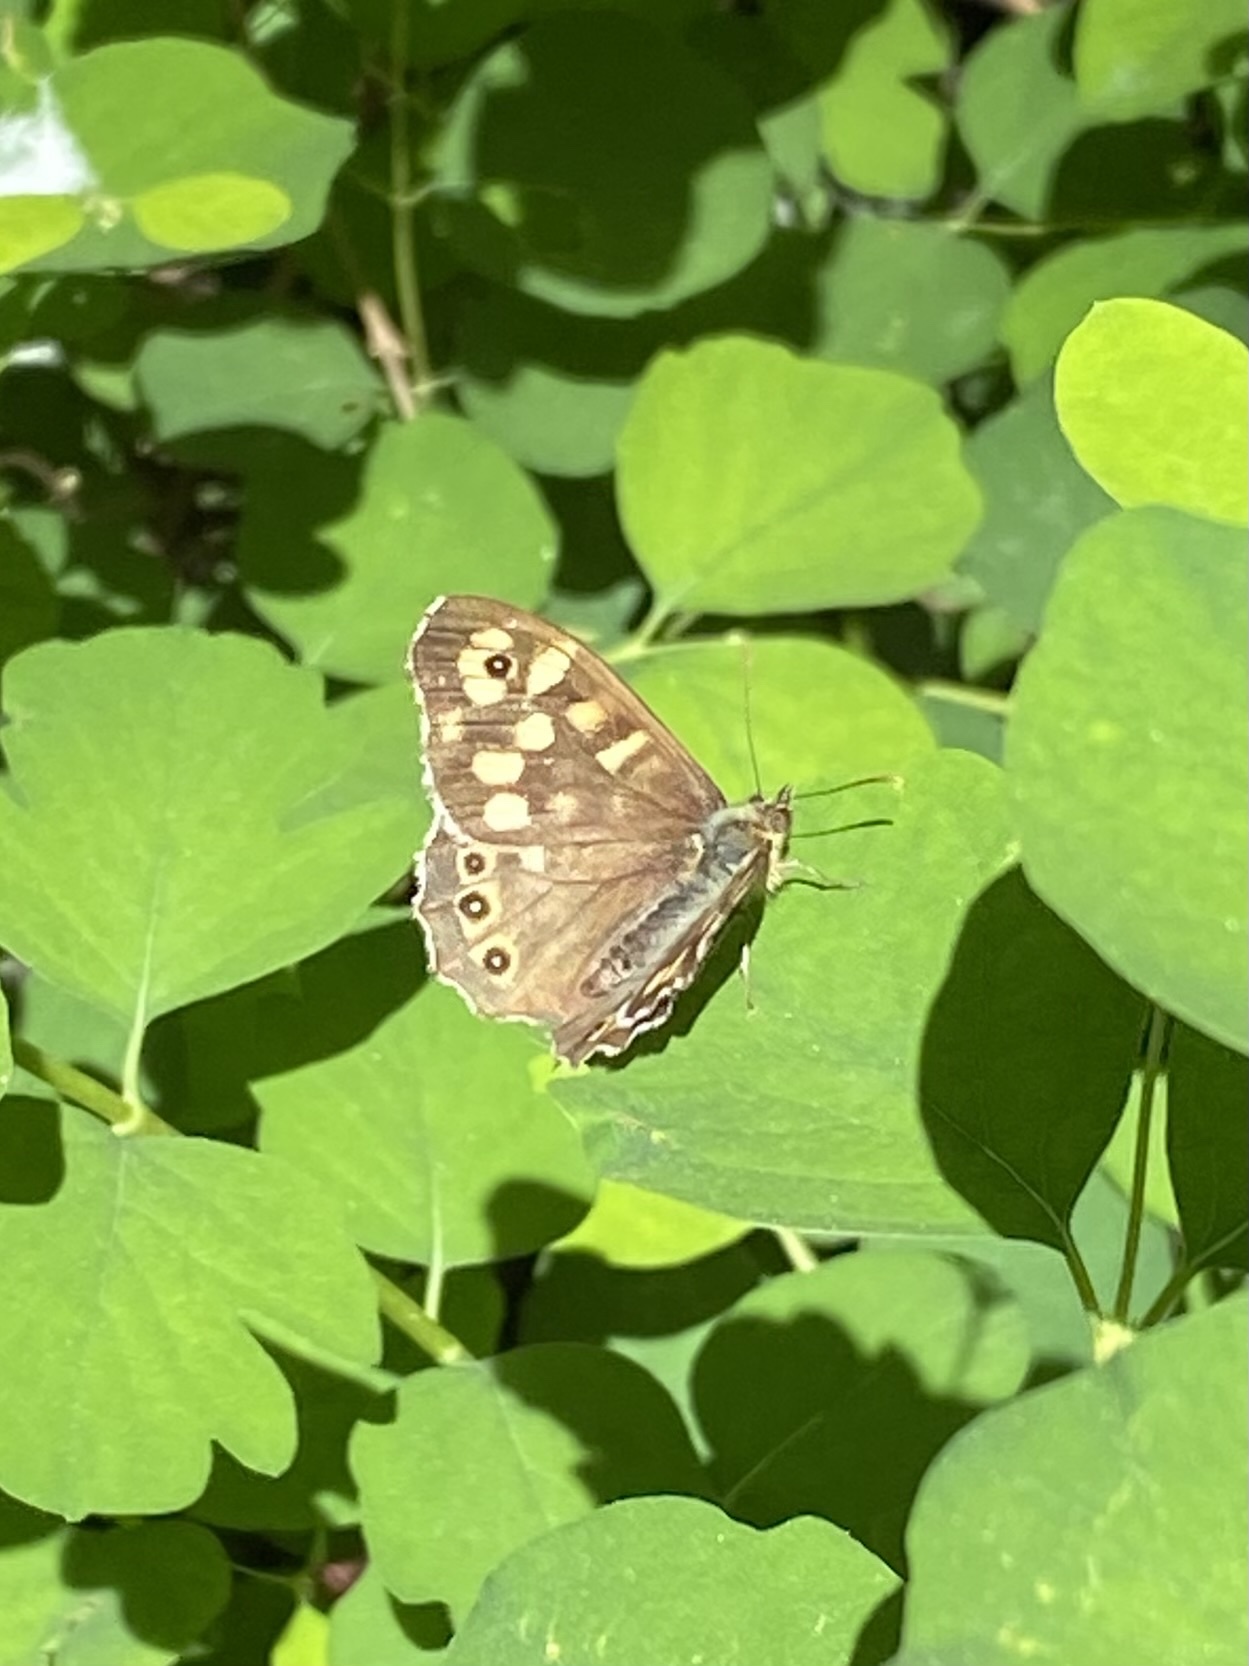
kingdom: Animalia
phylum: Arthropoda
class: Insecta
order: Lepidoptera
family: Nymphalidae
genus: Pararge
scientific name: Pararge aegeria
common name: Speckled wood
